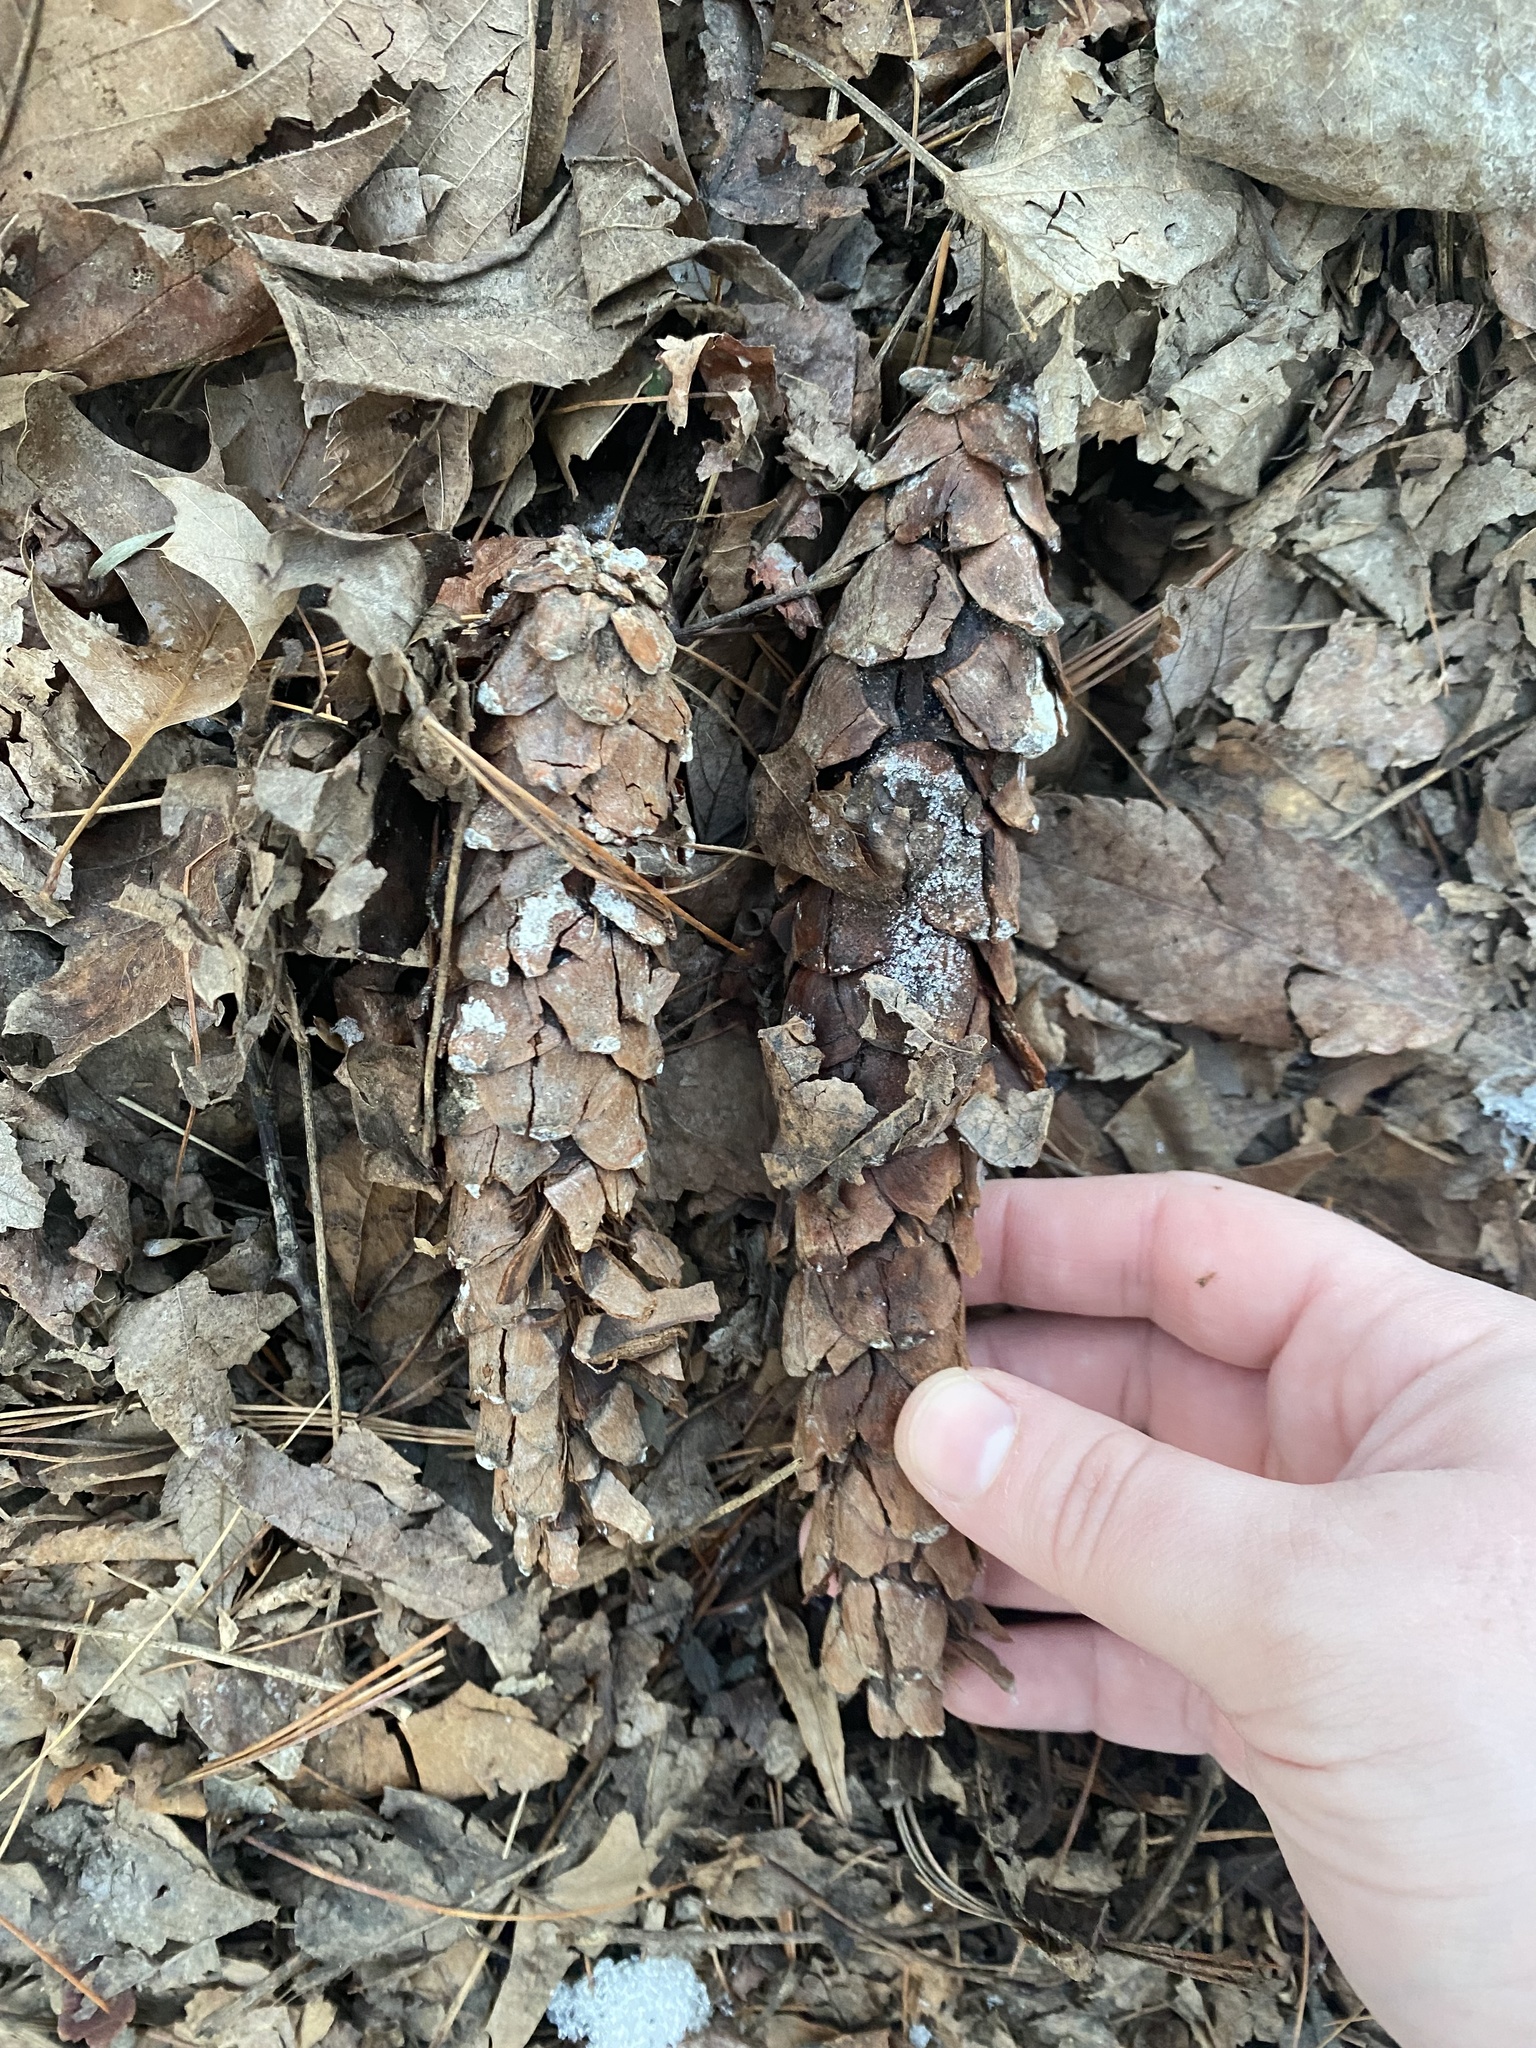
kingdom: Plantae
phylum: Tracheophyta
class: Pinopsida
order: Pinales
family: Pinaceae
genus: Pinus
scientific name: Pinus strobus
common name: Weymouth pine
